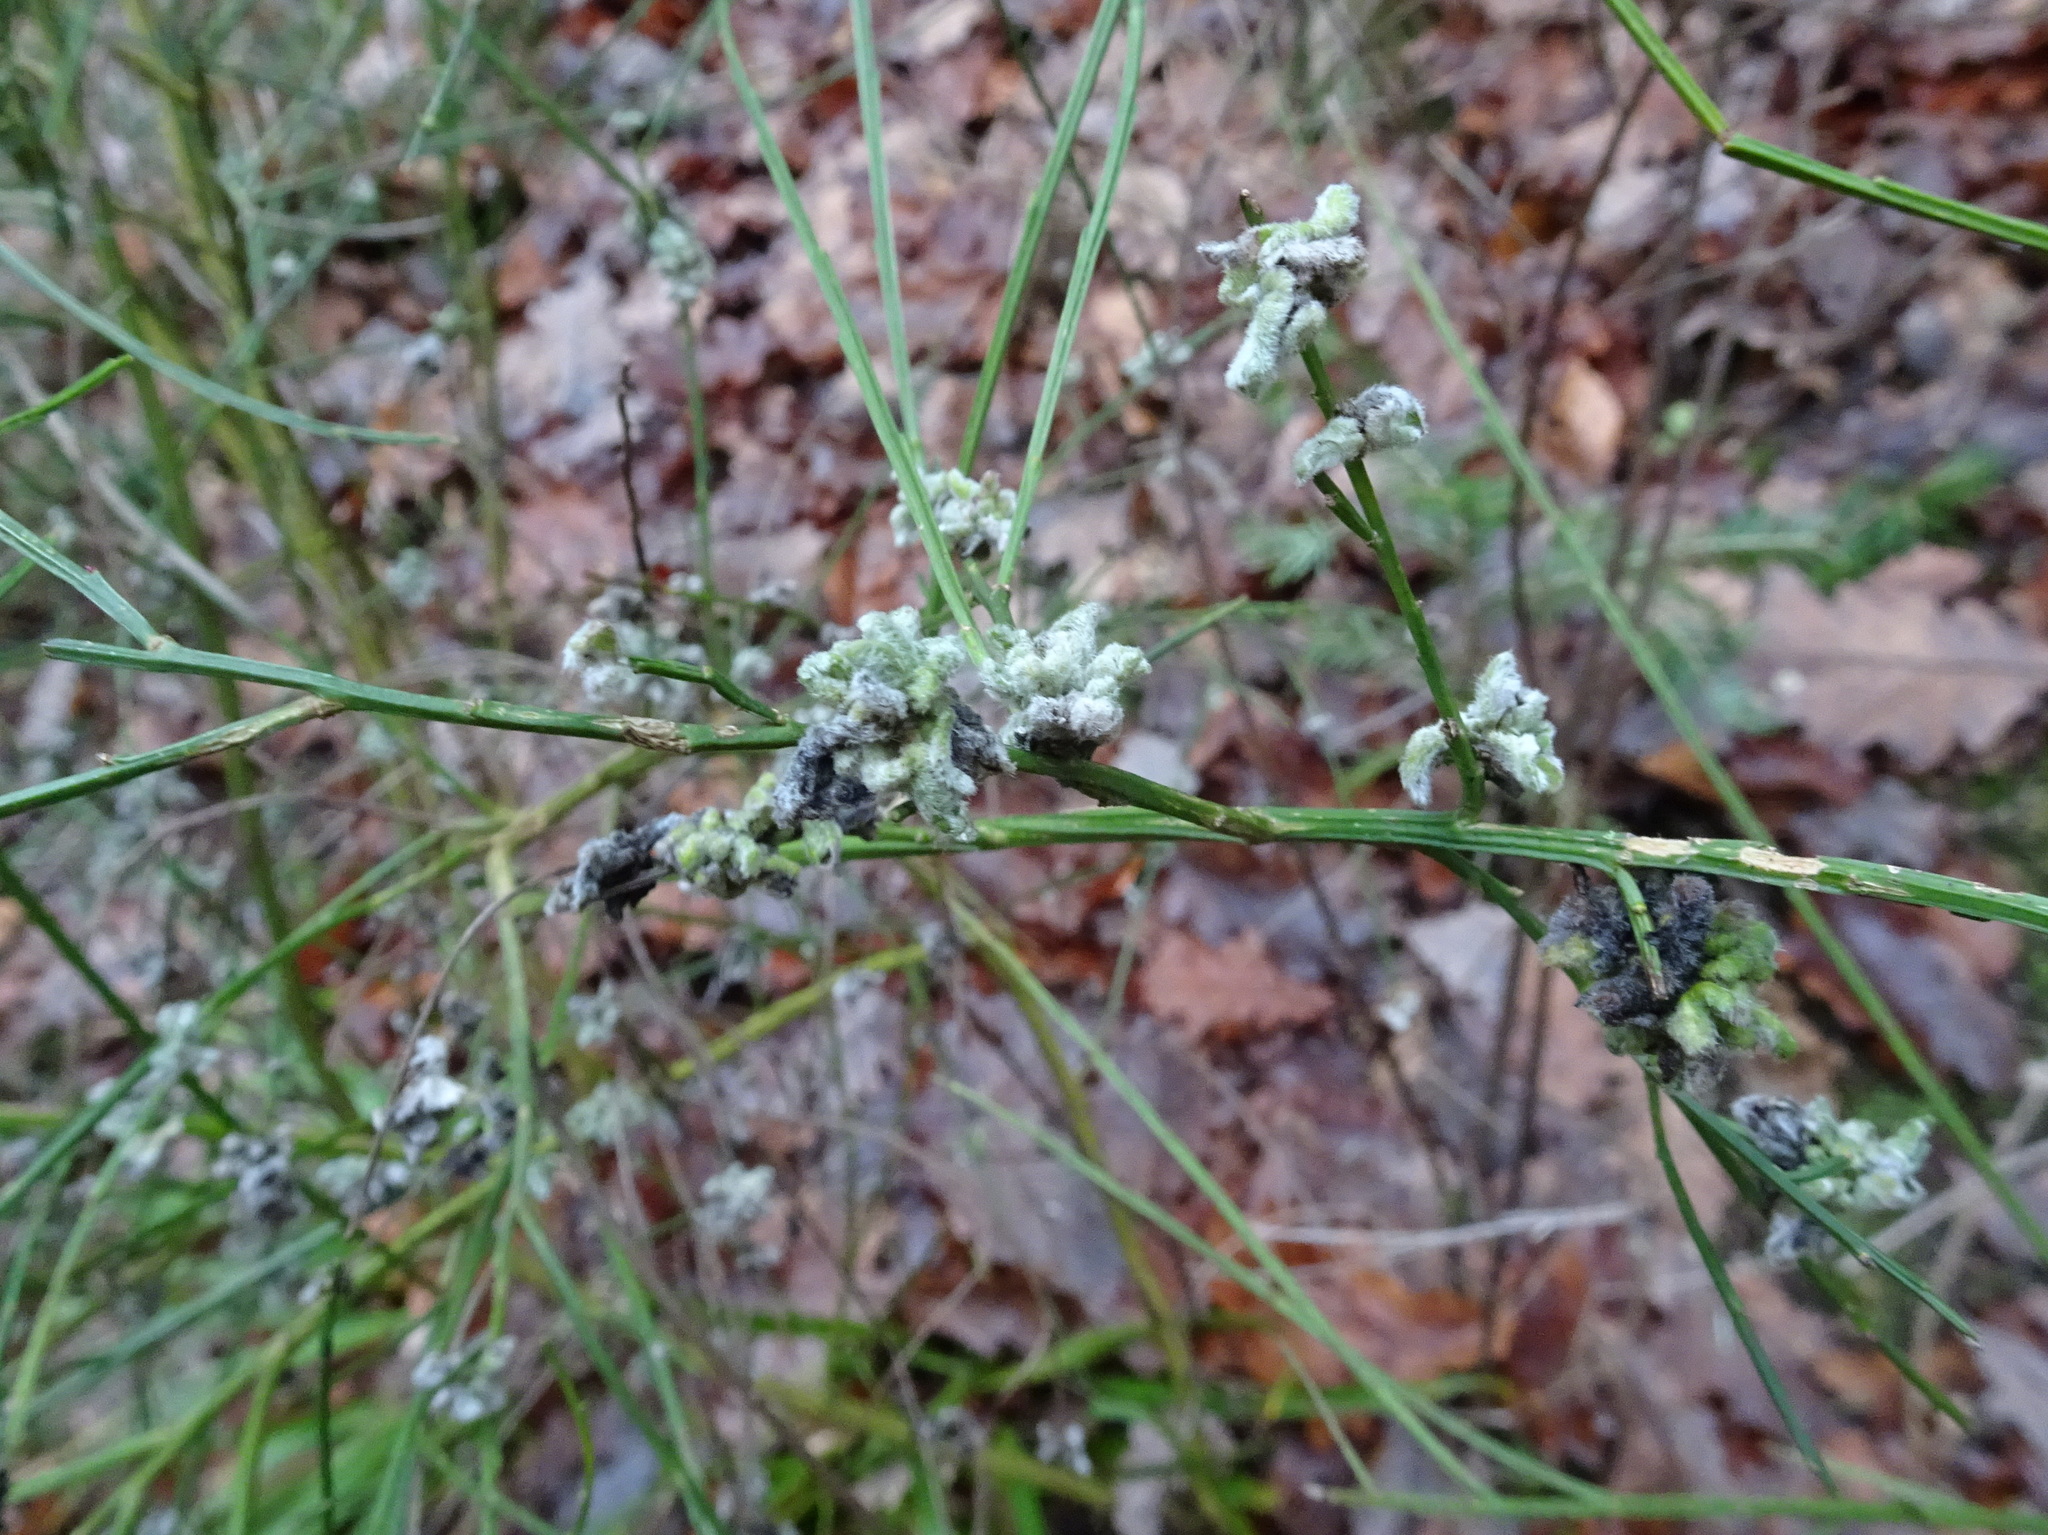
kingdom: Animalia
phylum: Arthropoda
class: Arachnida
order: Trombidiformes
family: Eriophyidae
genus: Aceria
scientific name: Aceria genistae
